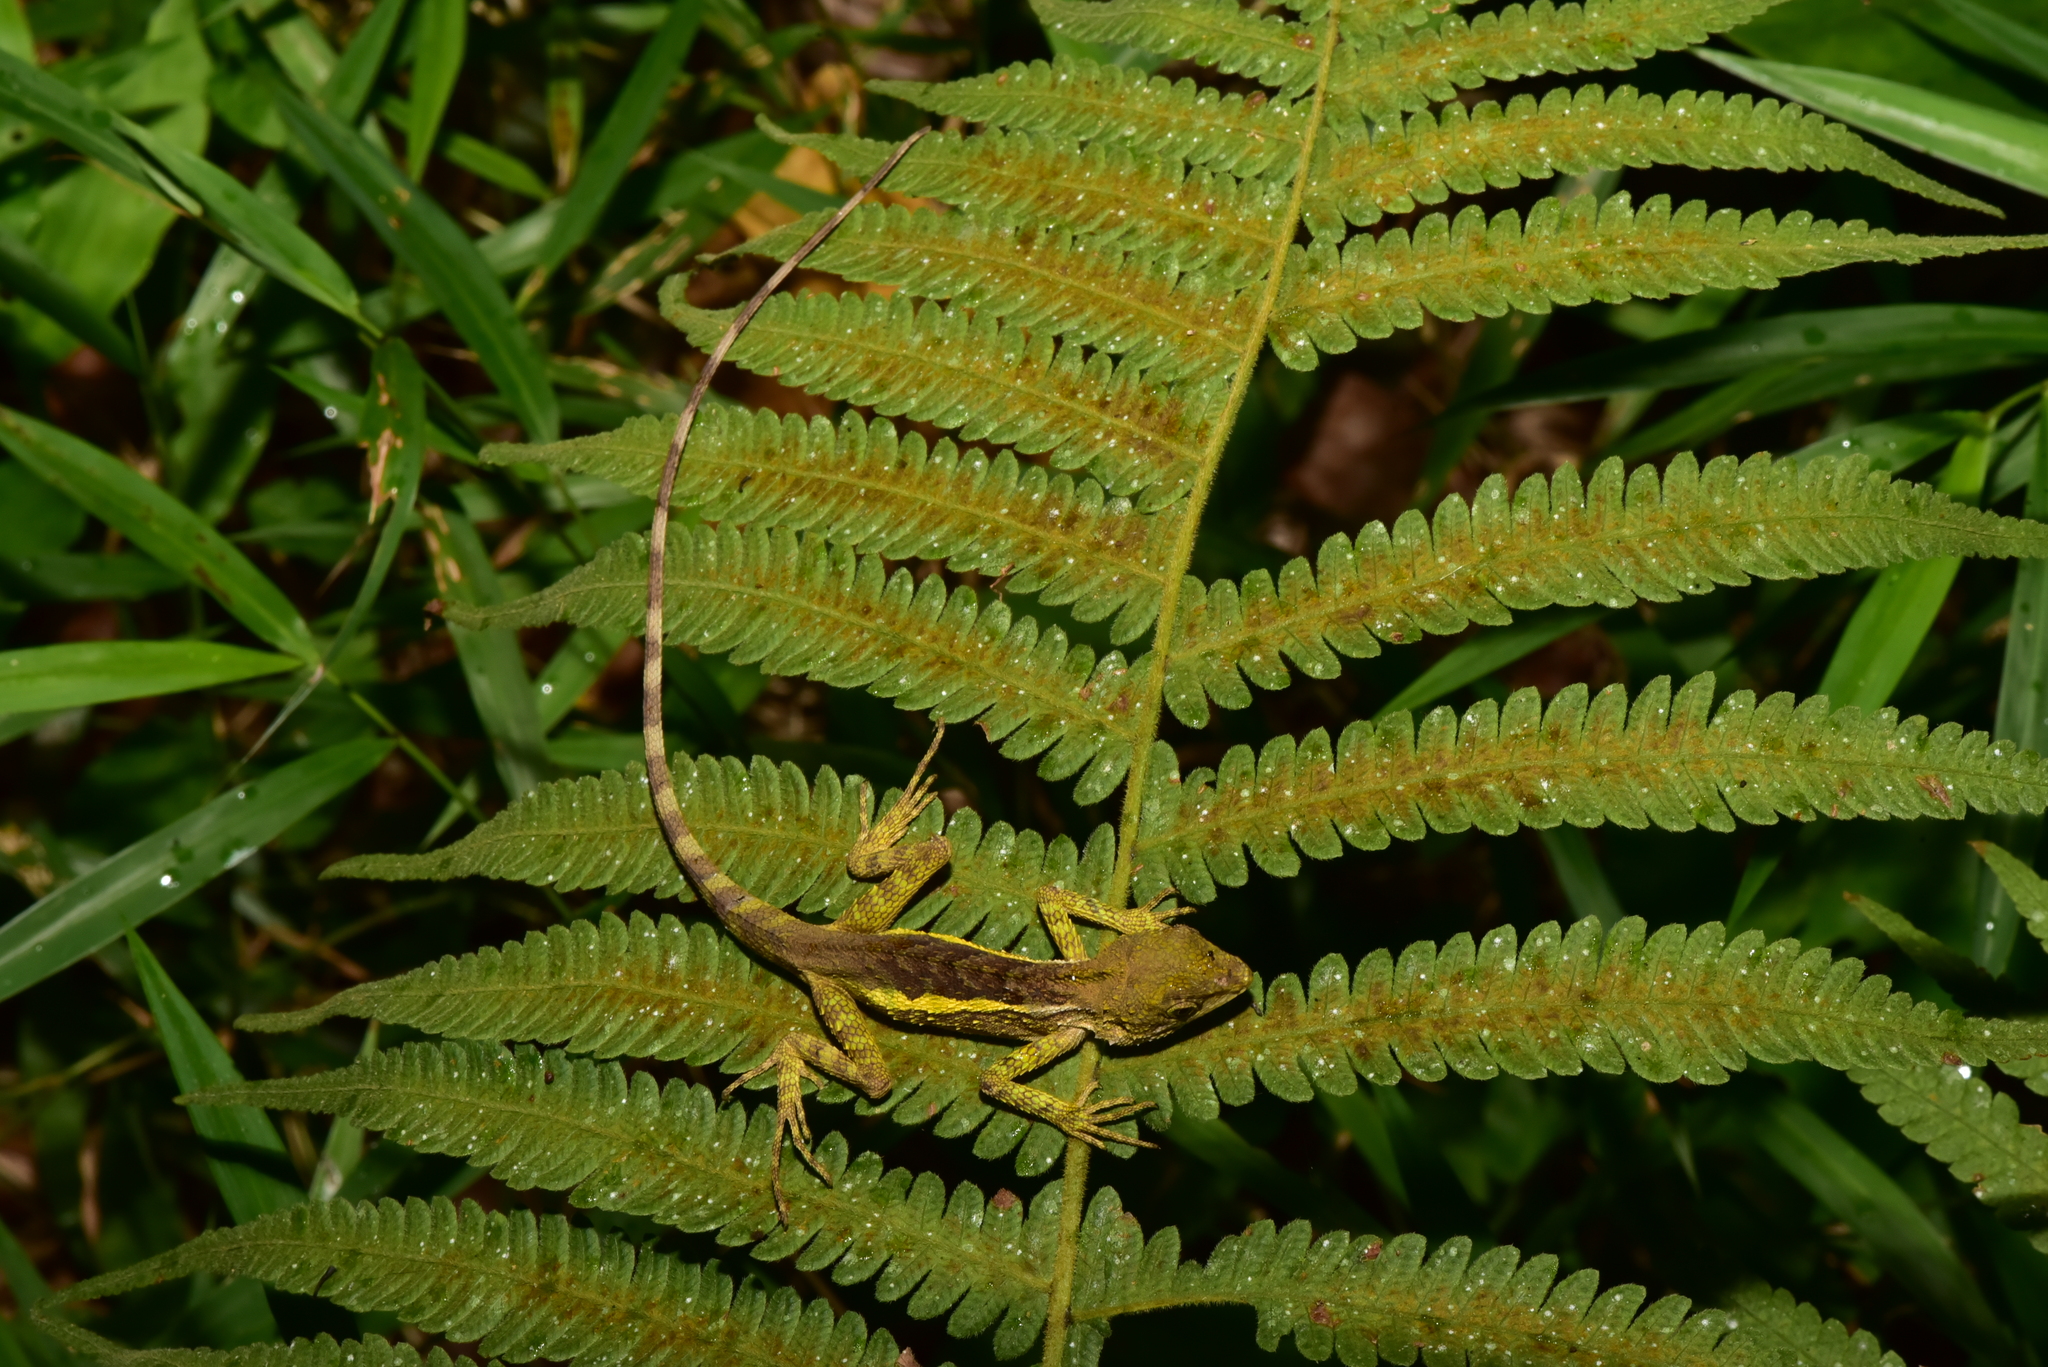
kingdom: Animalia
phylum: Chordata
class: Squamata
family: Agamidae
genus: Diploderma
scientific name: Diploderma swinhonis
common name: Taiwan japalure
